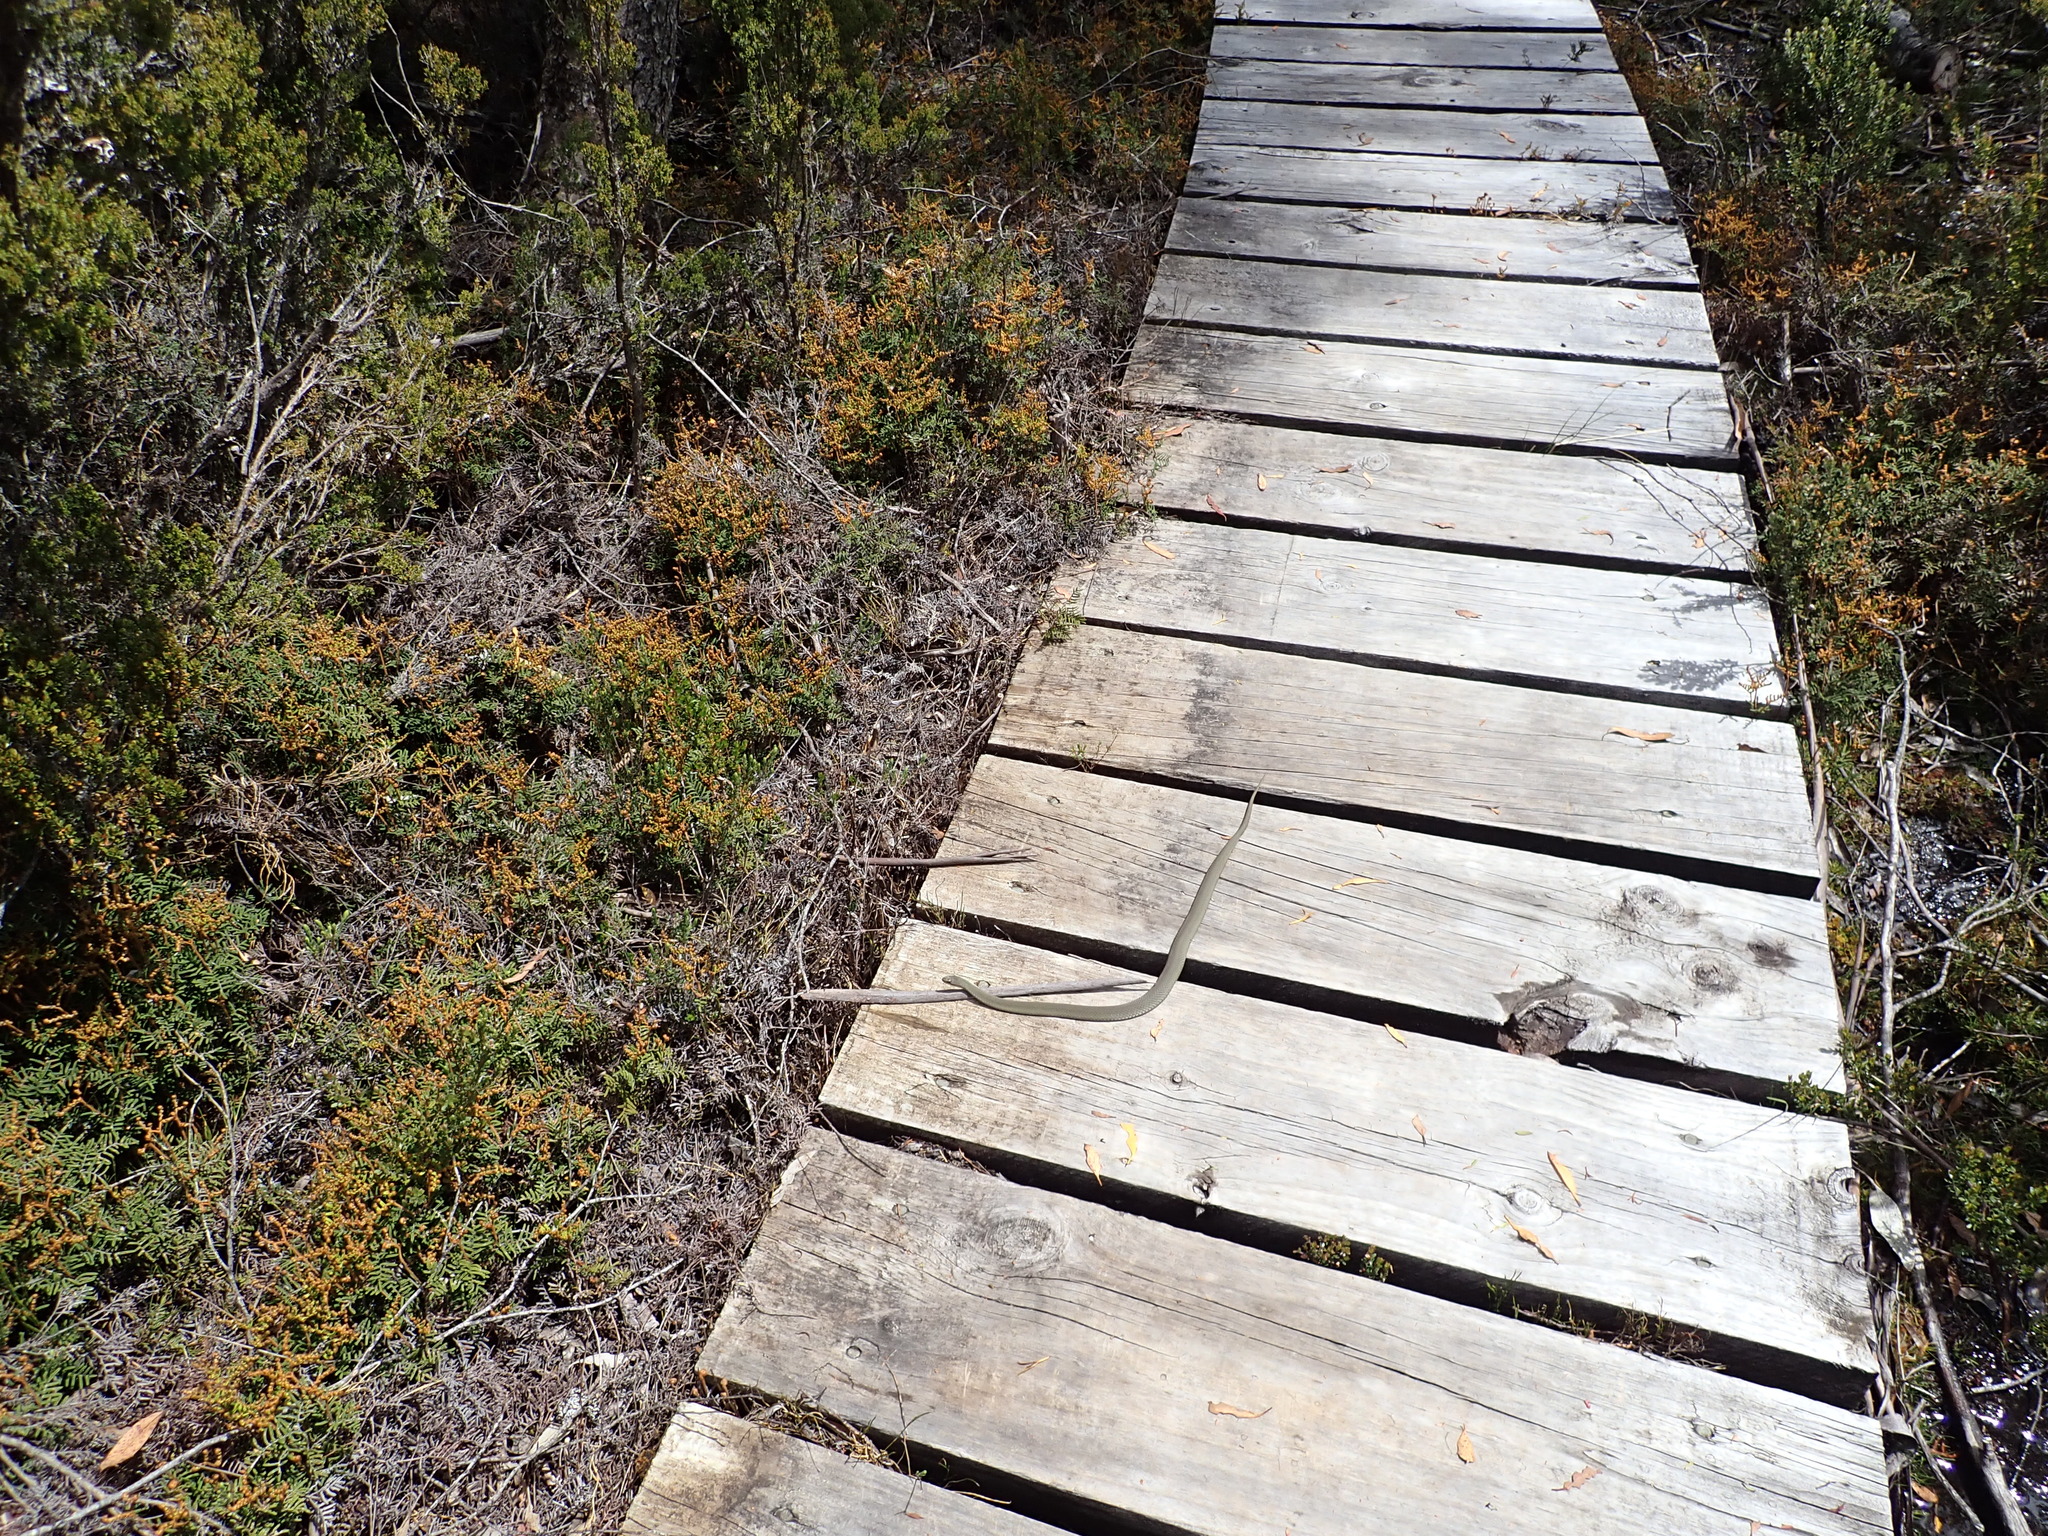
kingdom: Animalia
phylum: Chordata
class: Squamata
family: Elapidae
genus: Drysdalia
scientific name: Drysdalia coronoides
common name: White-lipped snake
